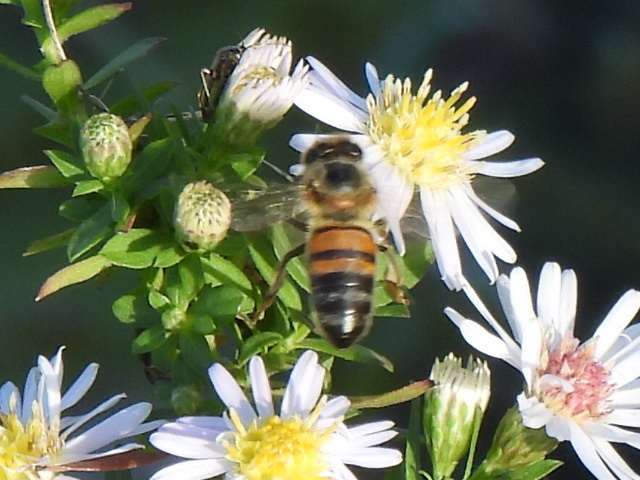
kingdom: Animalia
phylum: Arthropoda
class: Insecta
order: Hymenoptera
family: Apidae
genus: Apis
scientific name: Apis mellifera
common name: Honey bee
